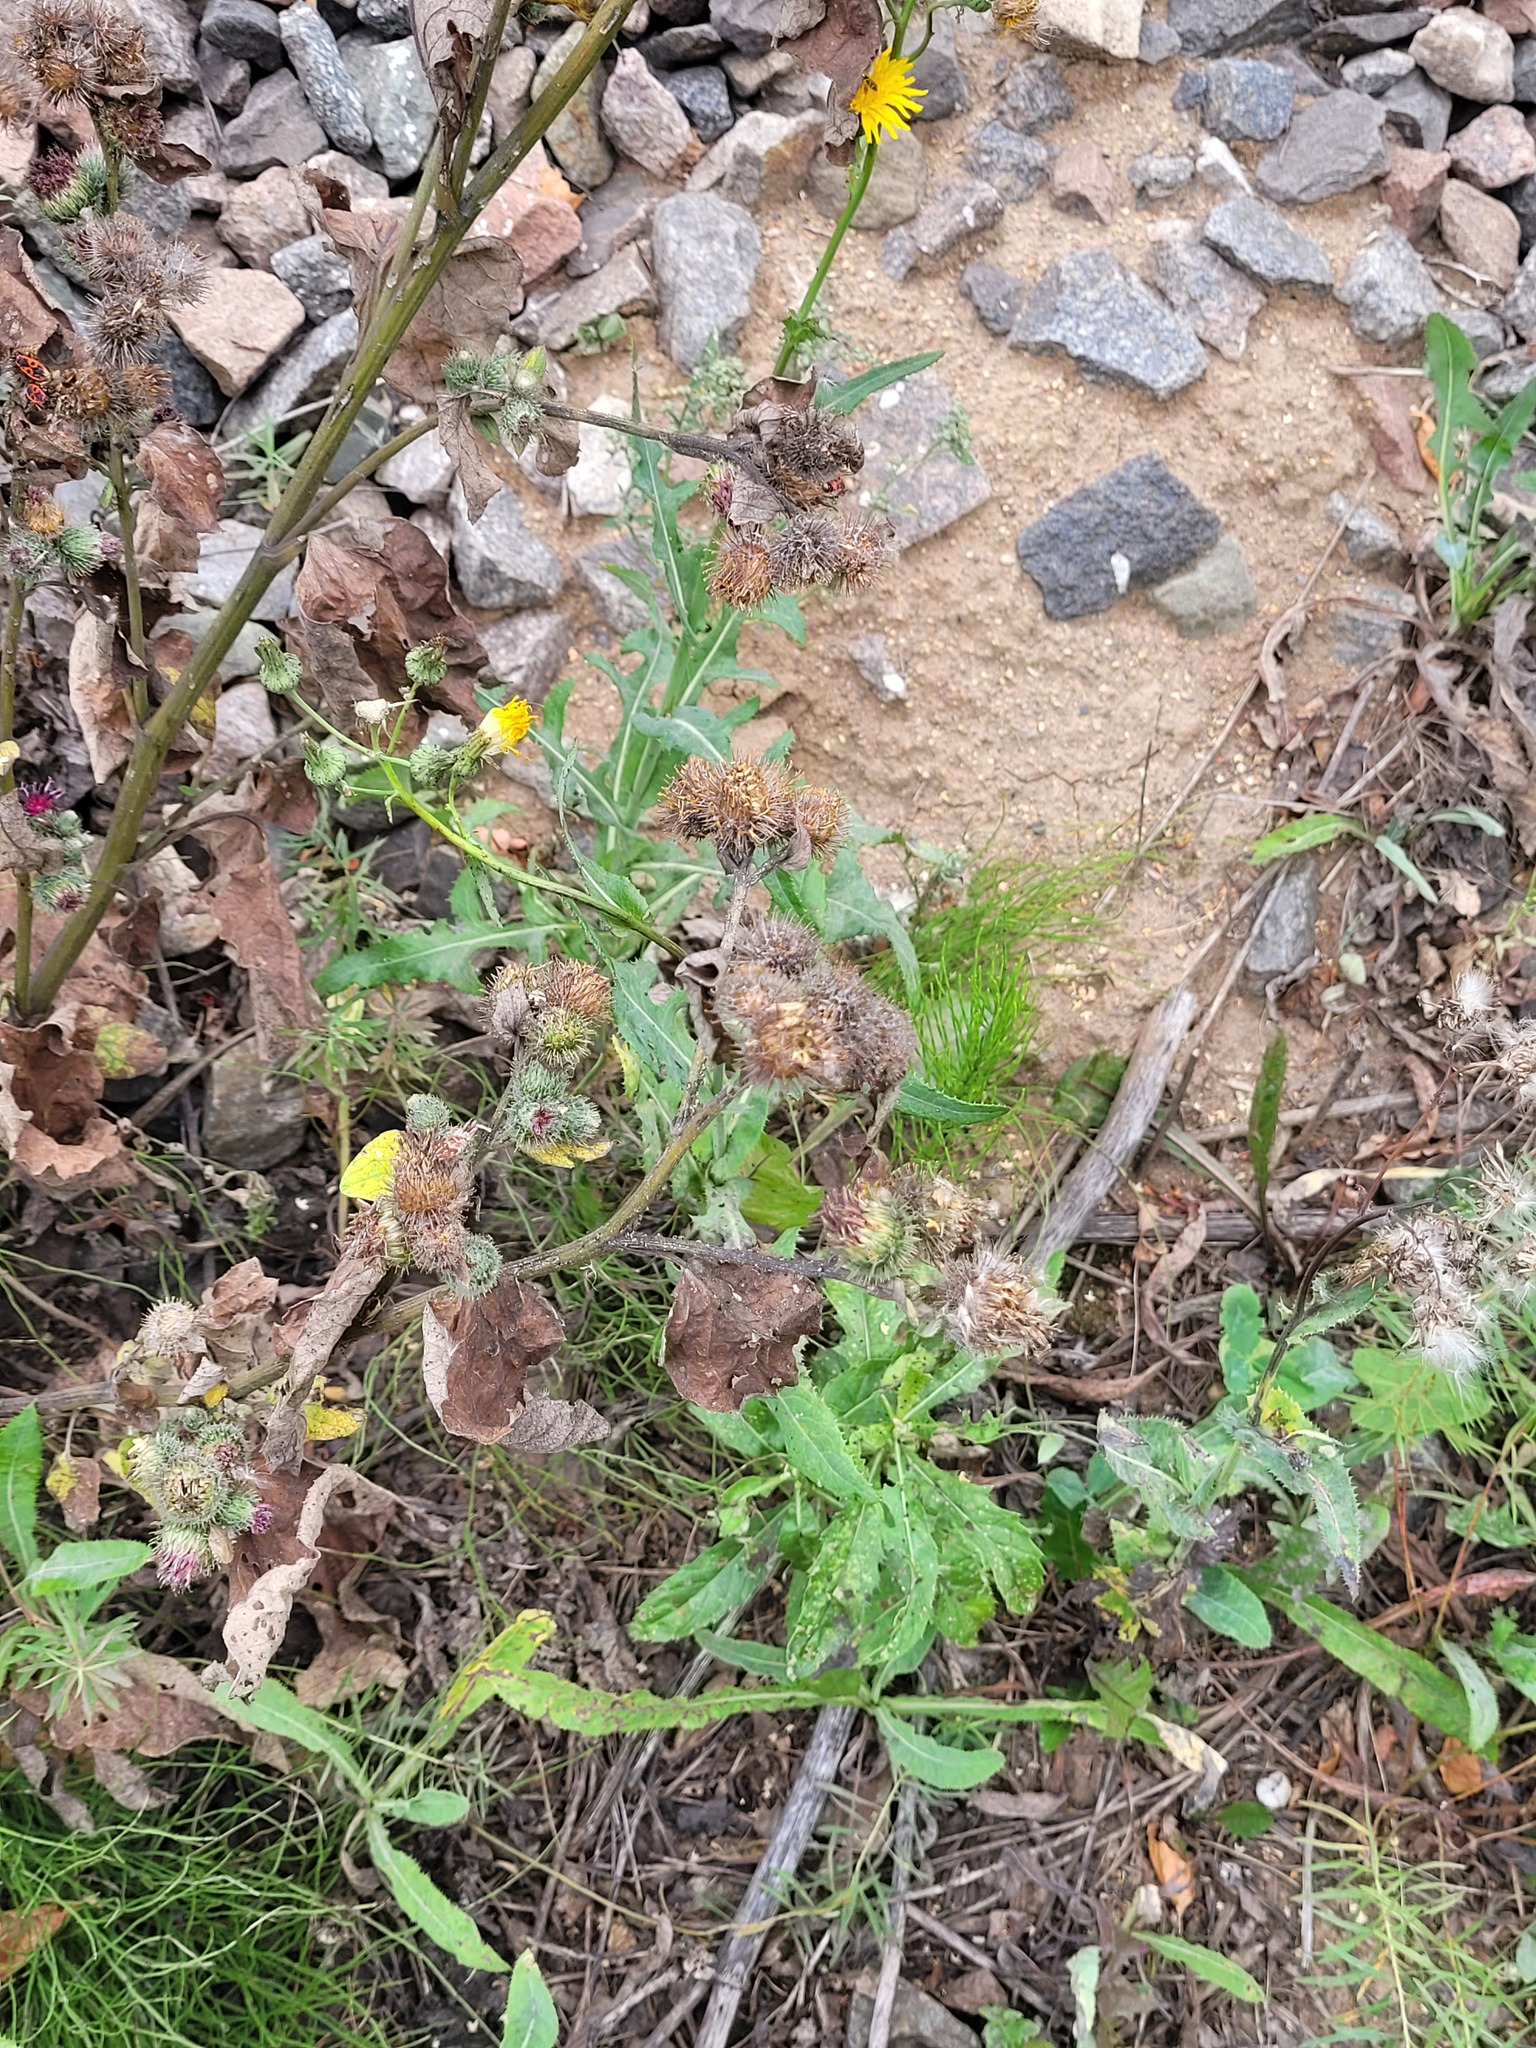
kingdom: Plantae
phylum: Tracheophyta
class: Magnoliopsida
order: Asterales
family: Asteraceae
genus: Arctium
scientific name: Arctium tomentosum
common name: Woolly burdock
